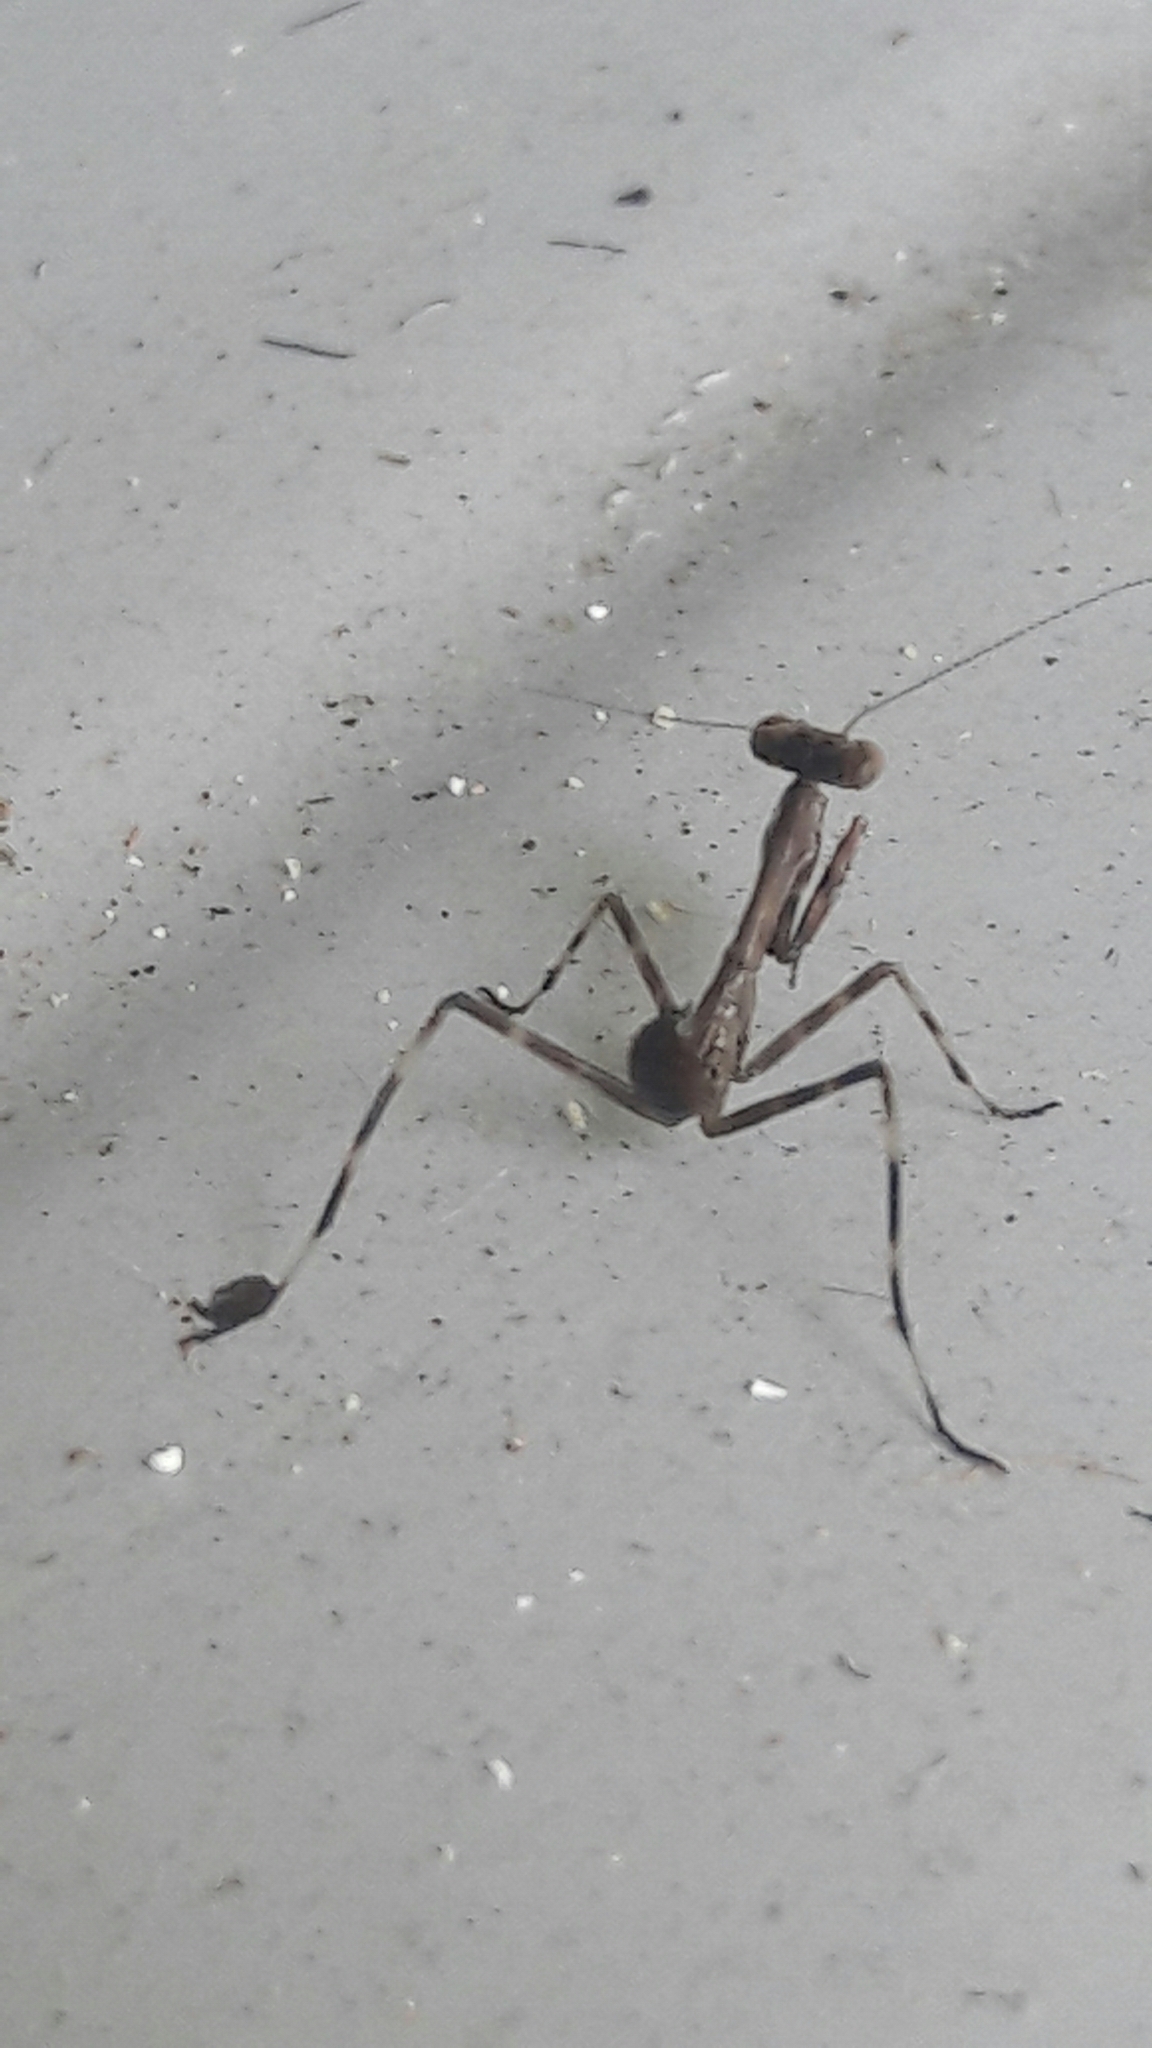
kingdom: Animalia
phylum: Arthropoda
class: Insecta
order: Mantodea
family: Mantidae
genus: Stagmatoptera
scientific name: Stagmatoptera
